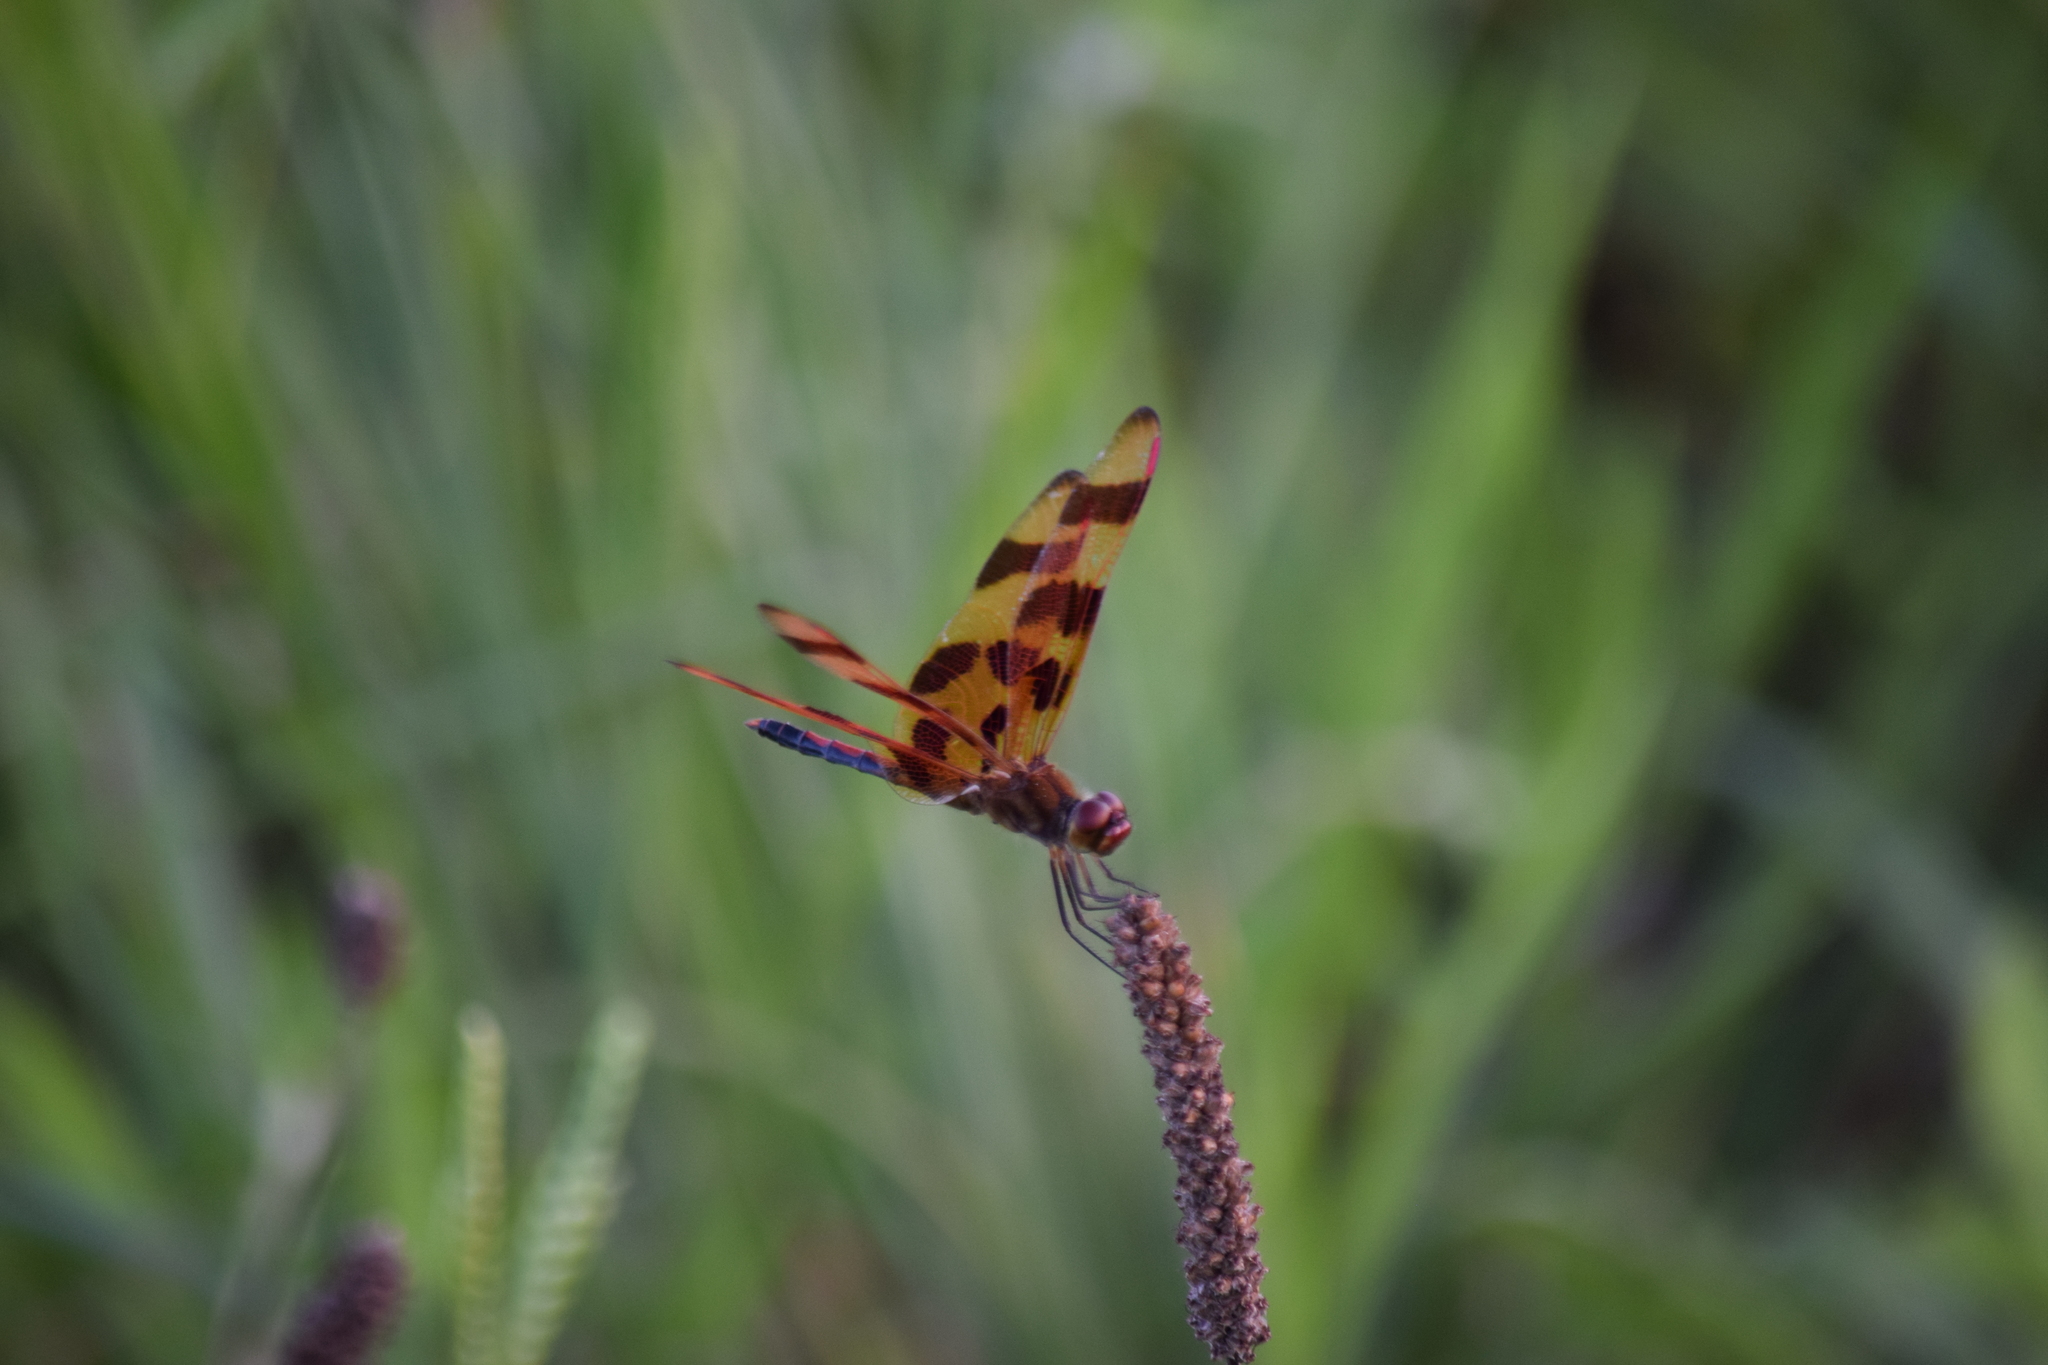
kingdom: Animalia
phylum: Arthropoda
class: Insecta
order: Odonata
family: Libellulidae
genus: Celithemis
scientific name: Celithemis eponina
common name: Halloween pennant
